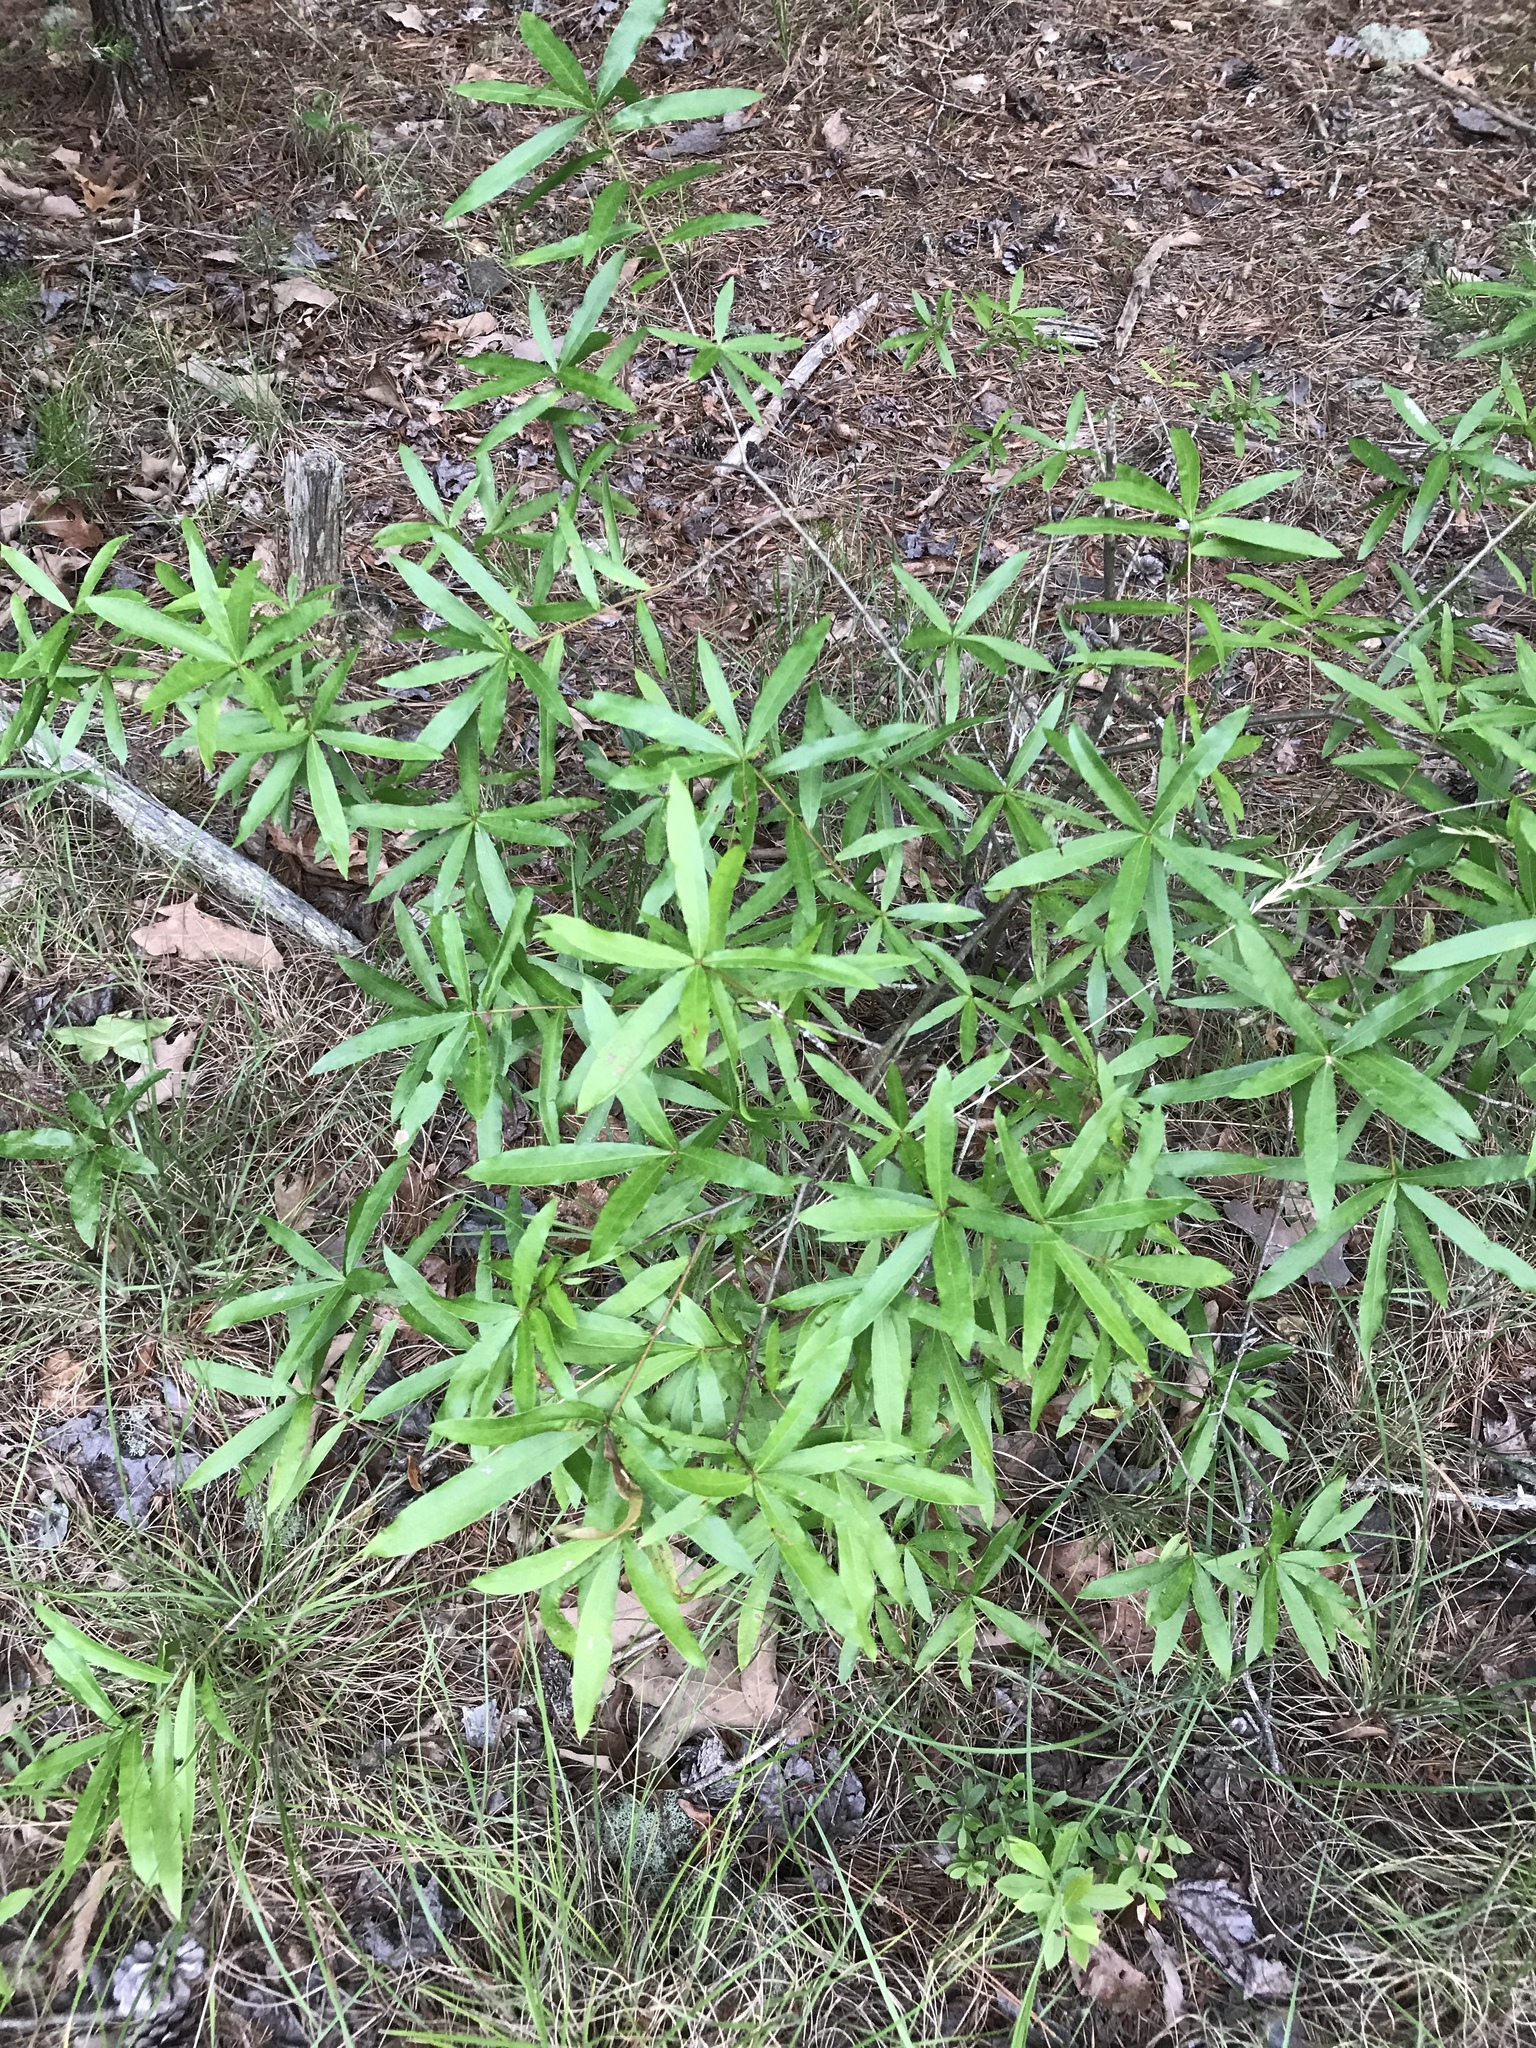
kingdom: Plantae
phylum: Tracheophyta
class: Magnoliopsida
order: Fagales
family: Fagaceae
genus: Quercus
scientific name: Quercus phellos
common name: Willow oak
